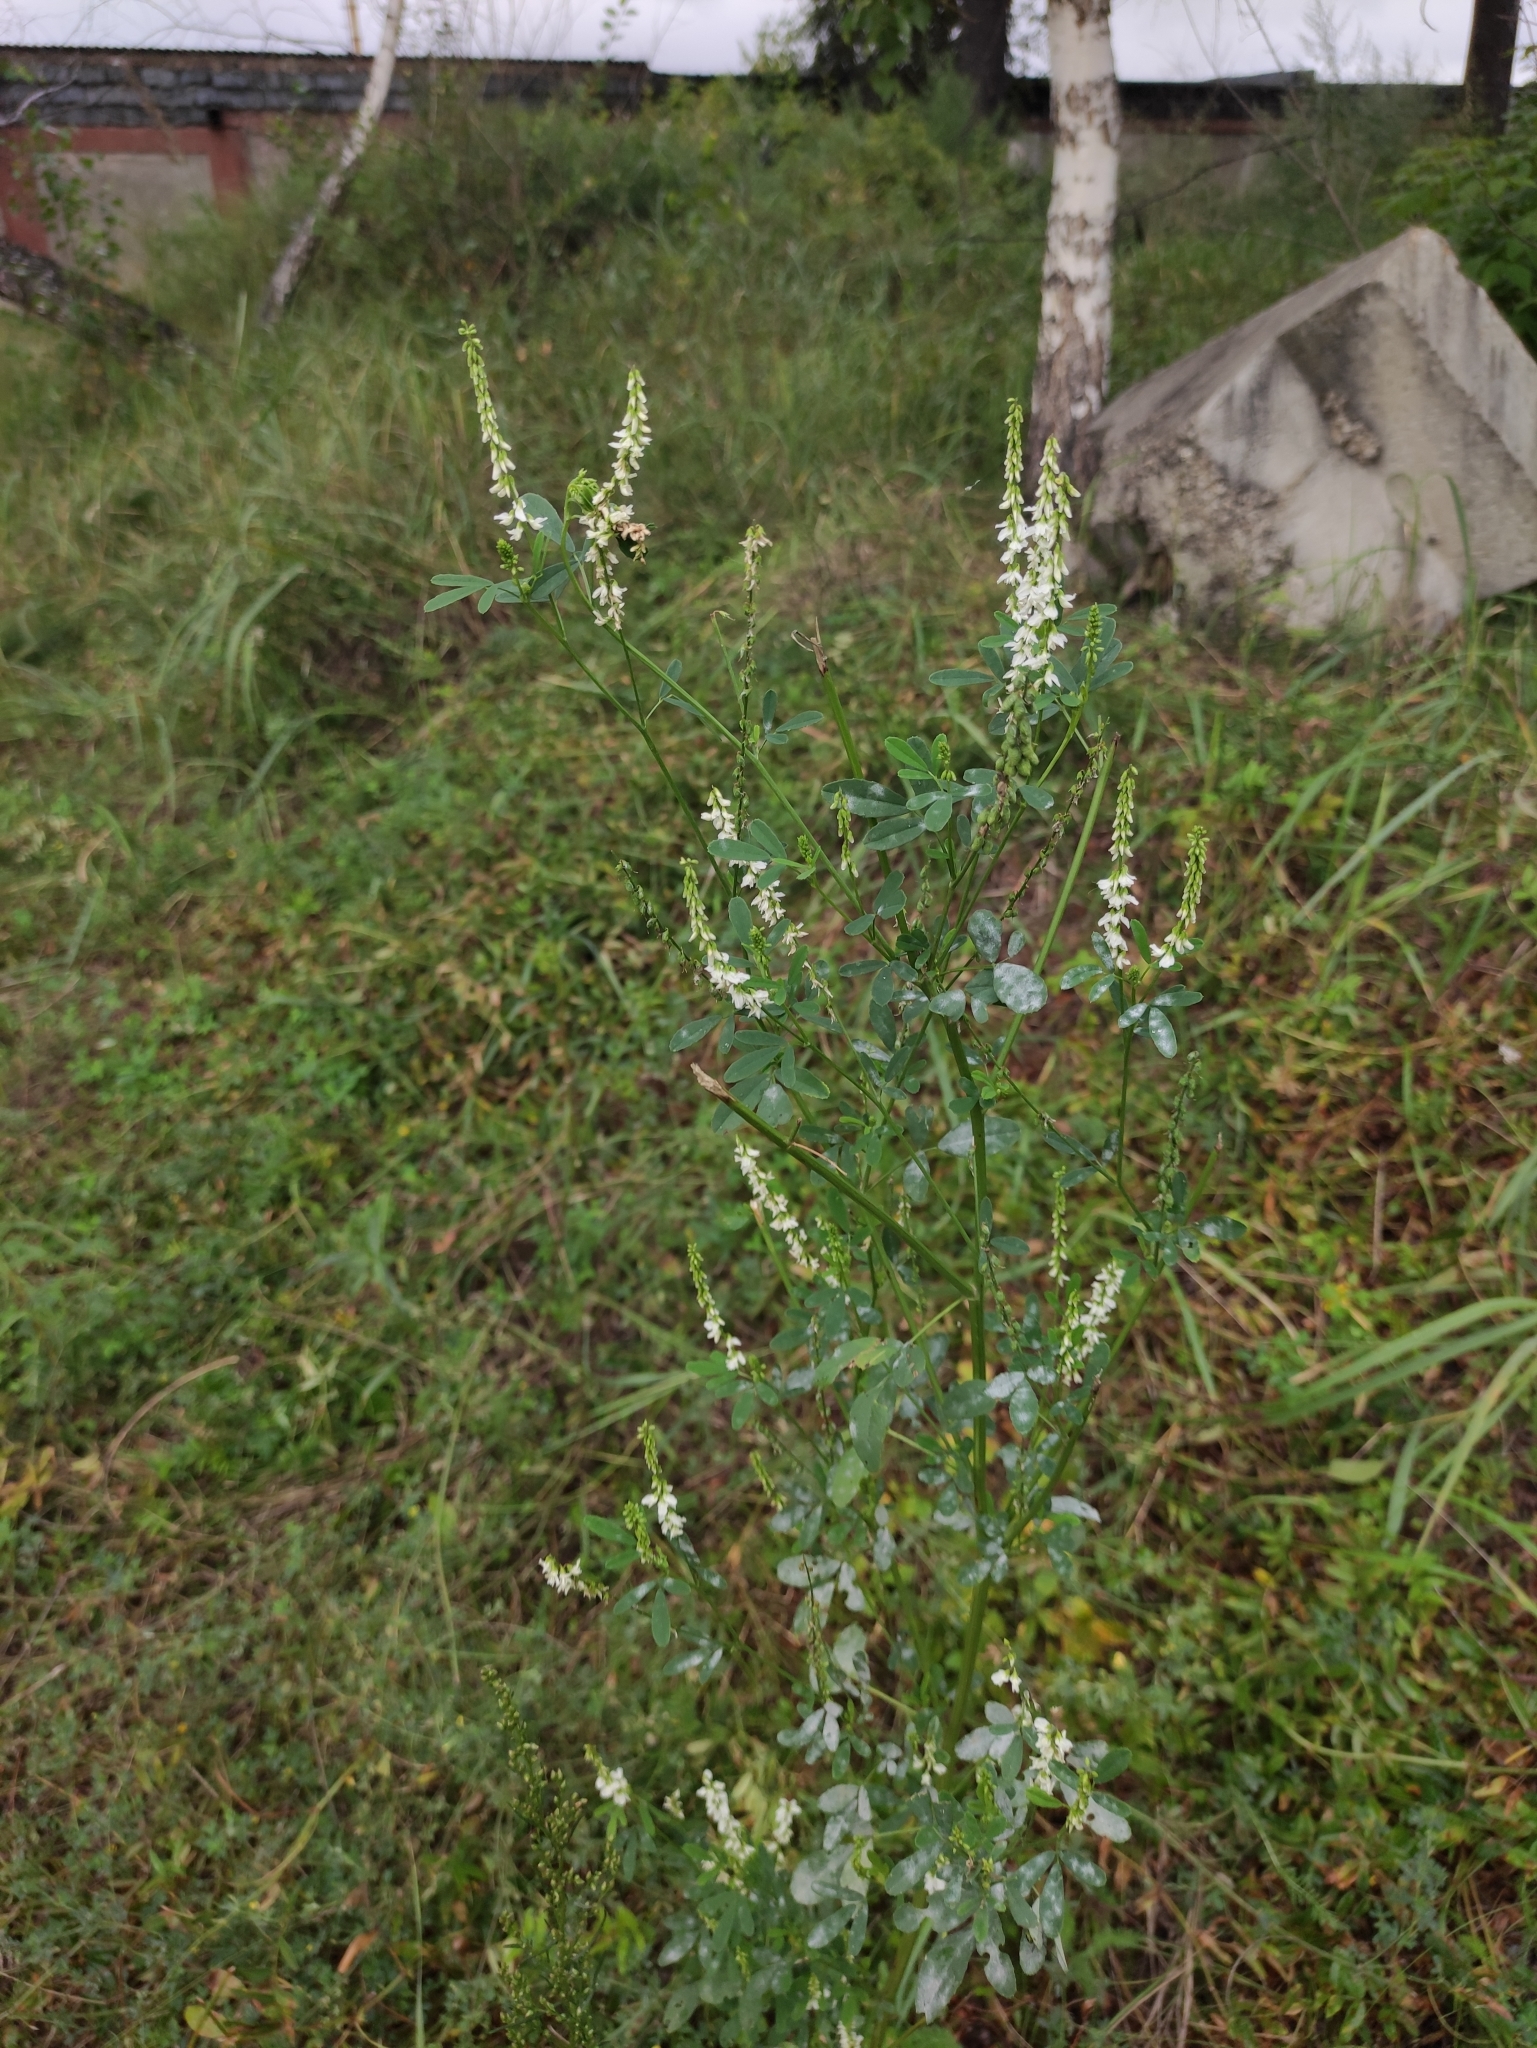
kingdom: Plantae
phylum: Tracheophyta
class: Magnoliopsida
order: Fabales
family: Fabaceae
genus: Melilotus
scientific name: Melilotus albus
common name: White melilot
